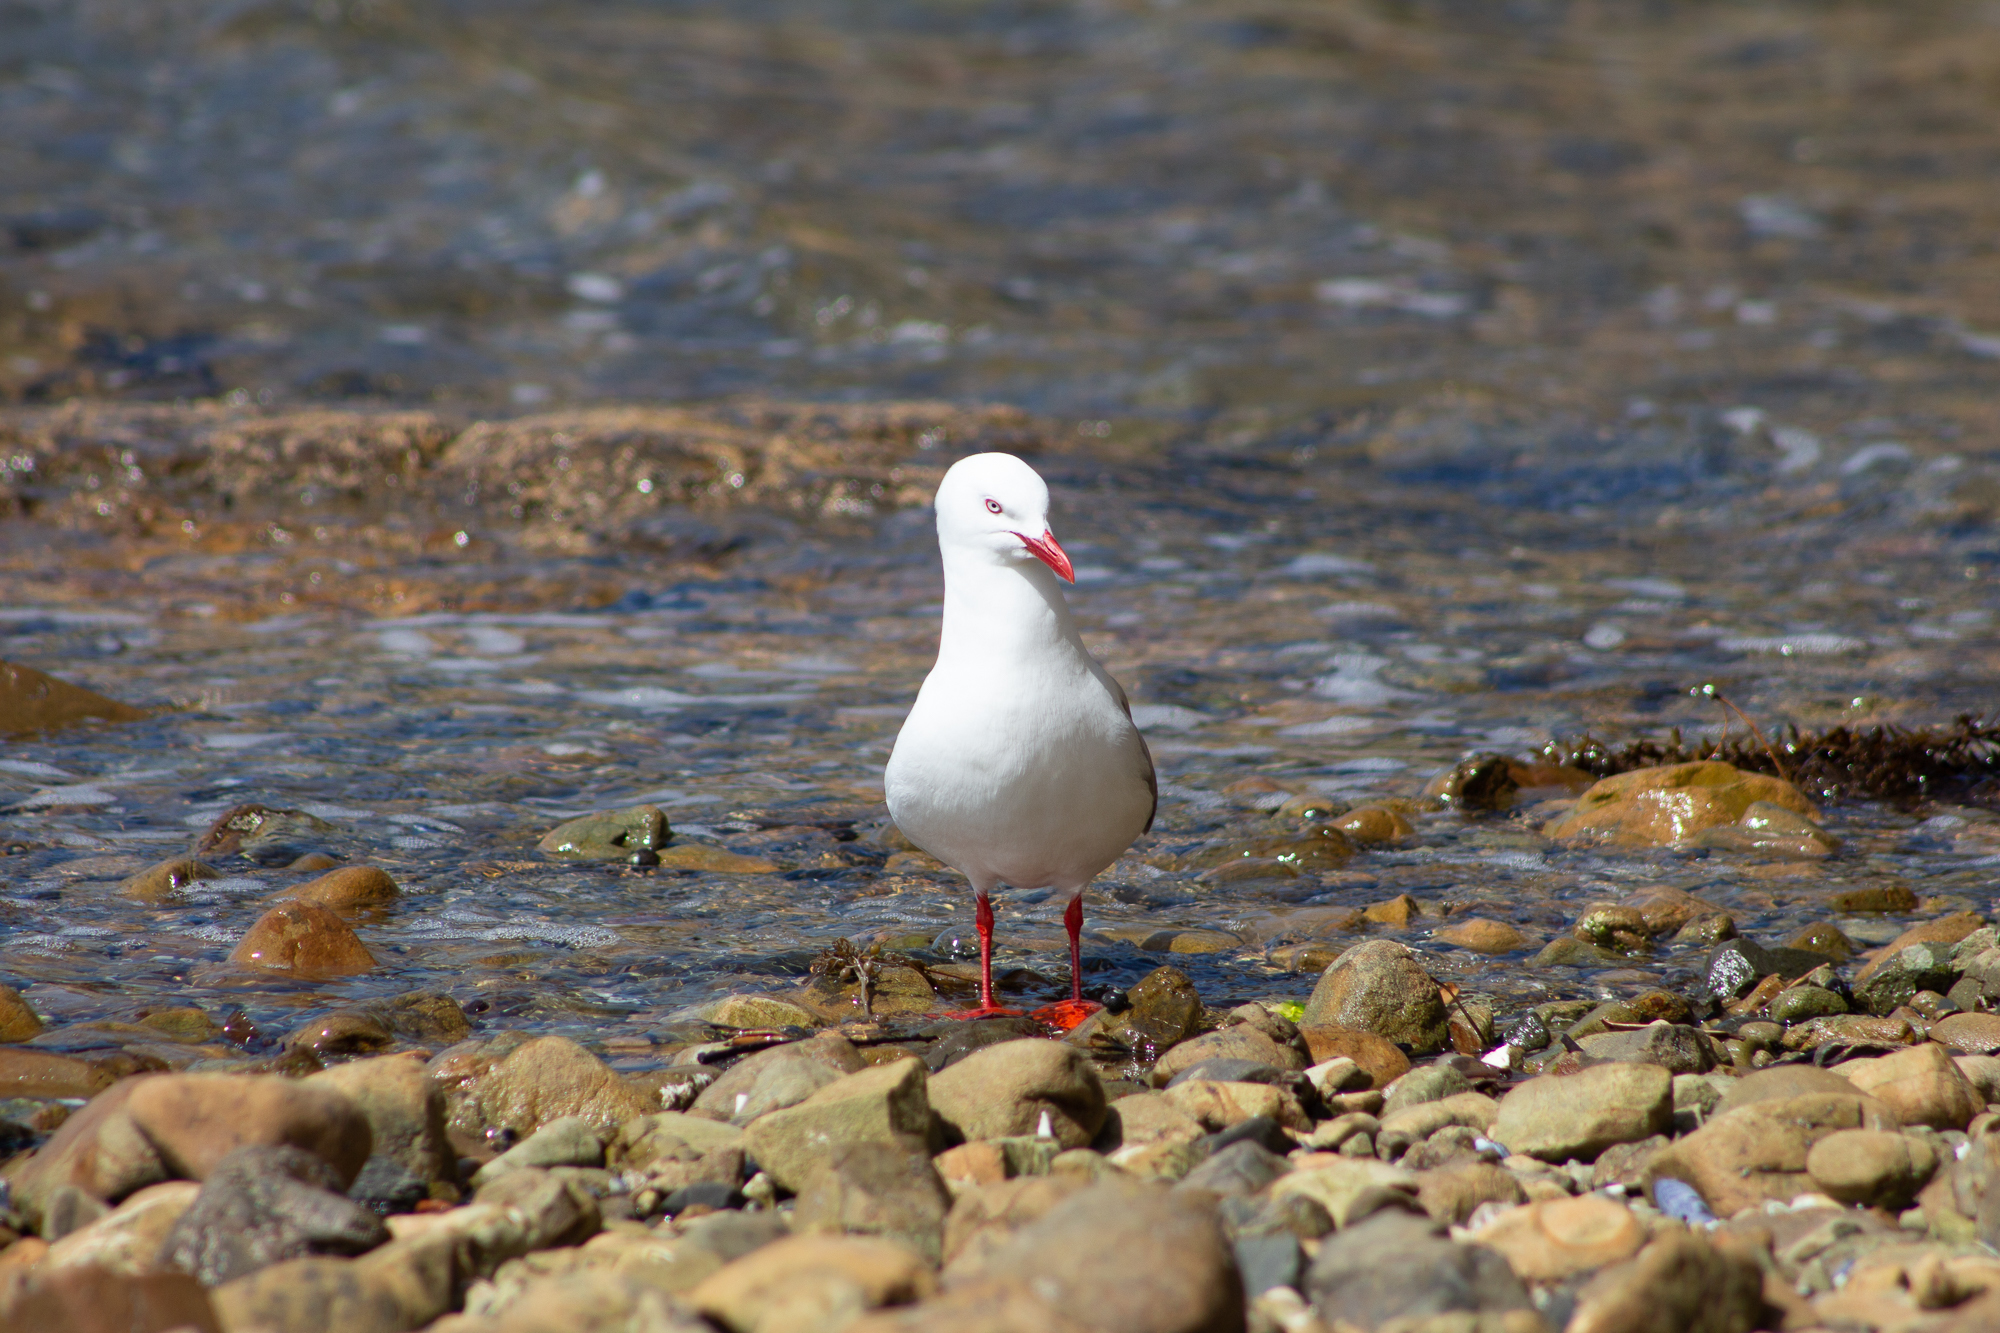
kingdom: Animalia
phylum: Chordata
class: Aves
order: Charadriiformes
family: Laridae
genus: Chroicocephalus
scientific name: Chroicocephalus novaehollandiae
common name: Silver gull
